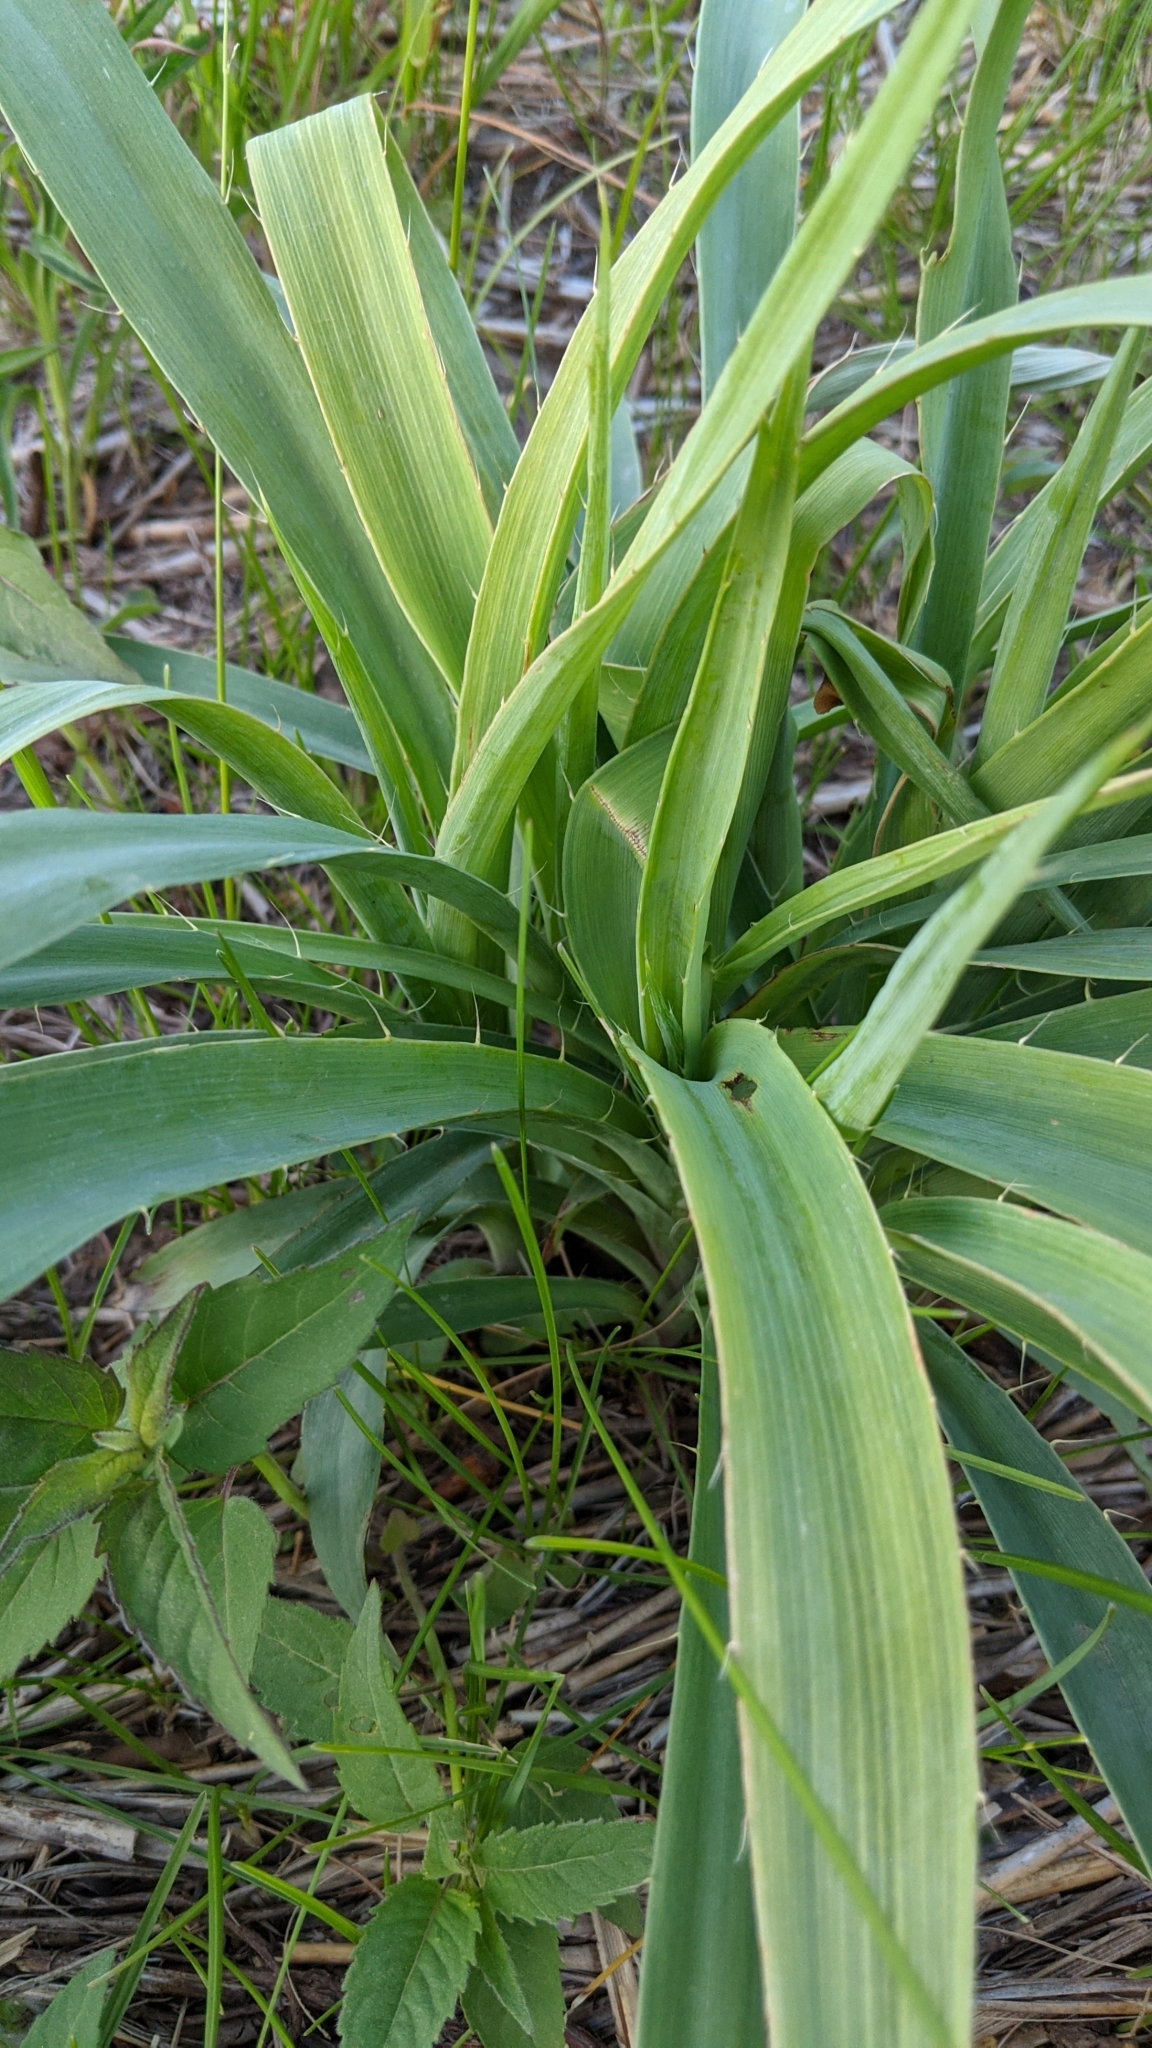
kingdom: Plantae
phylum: Tracheophyta
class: Magnoliopsida
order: Apiales
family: Apiaceae
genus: Eryngium
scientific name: Eryngium yuccifolium
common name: Button eryngo
